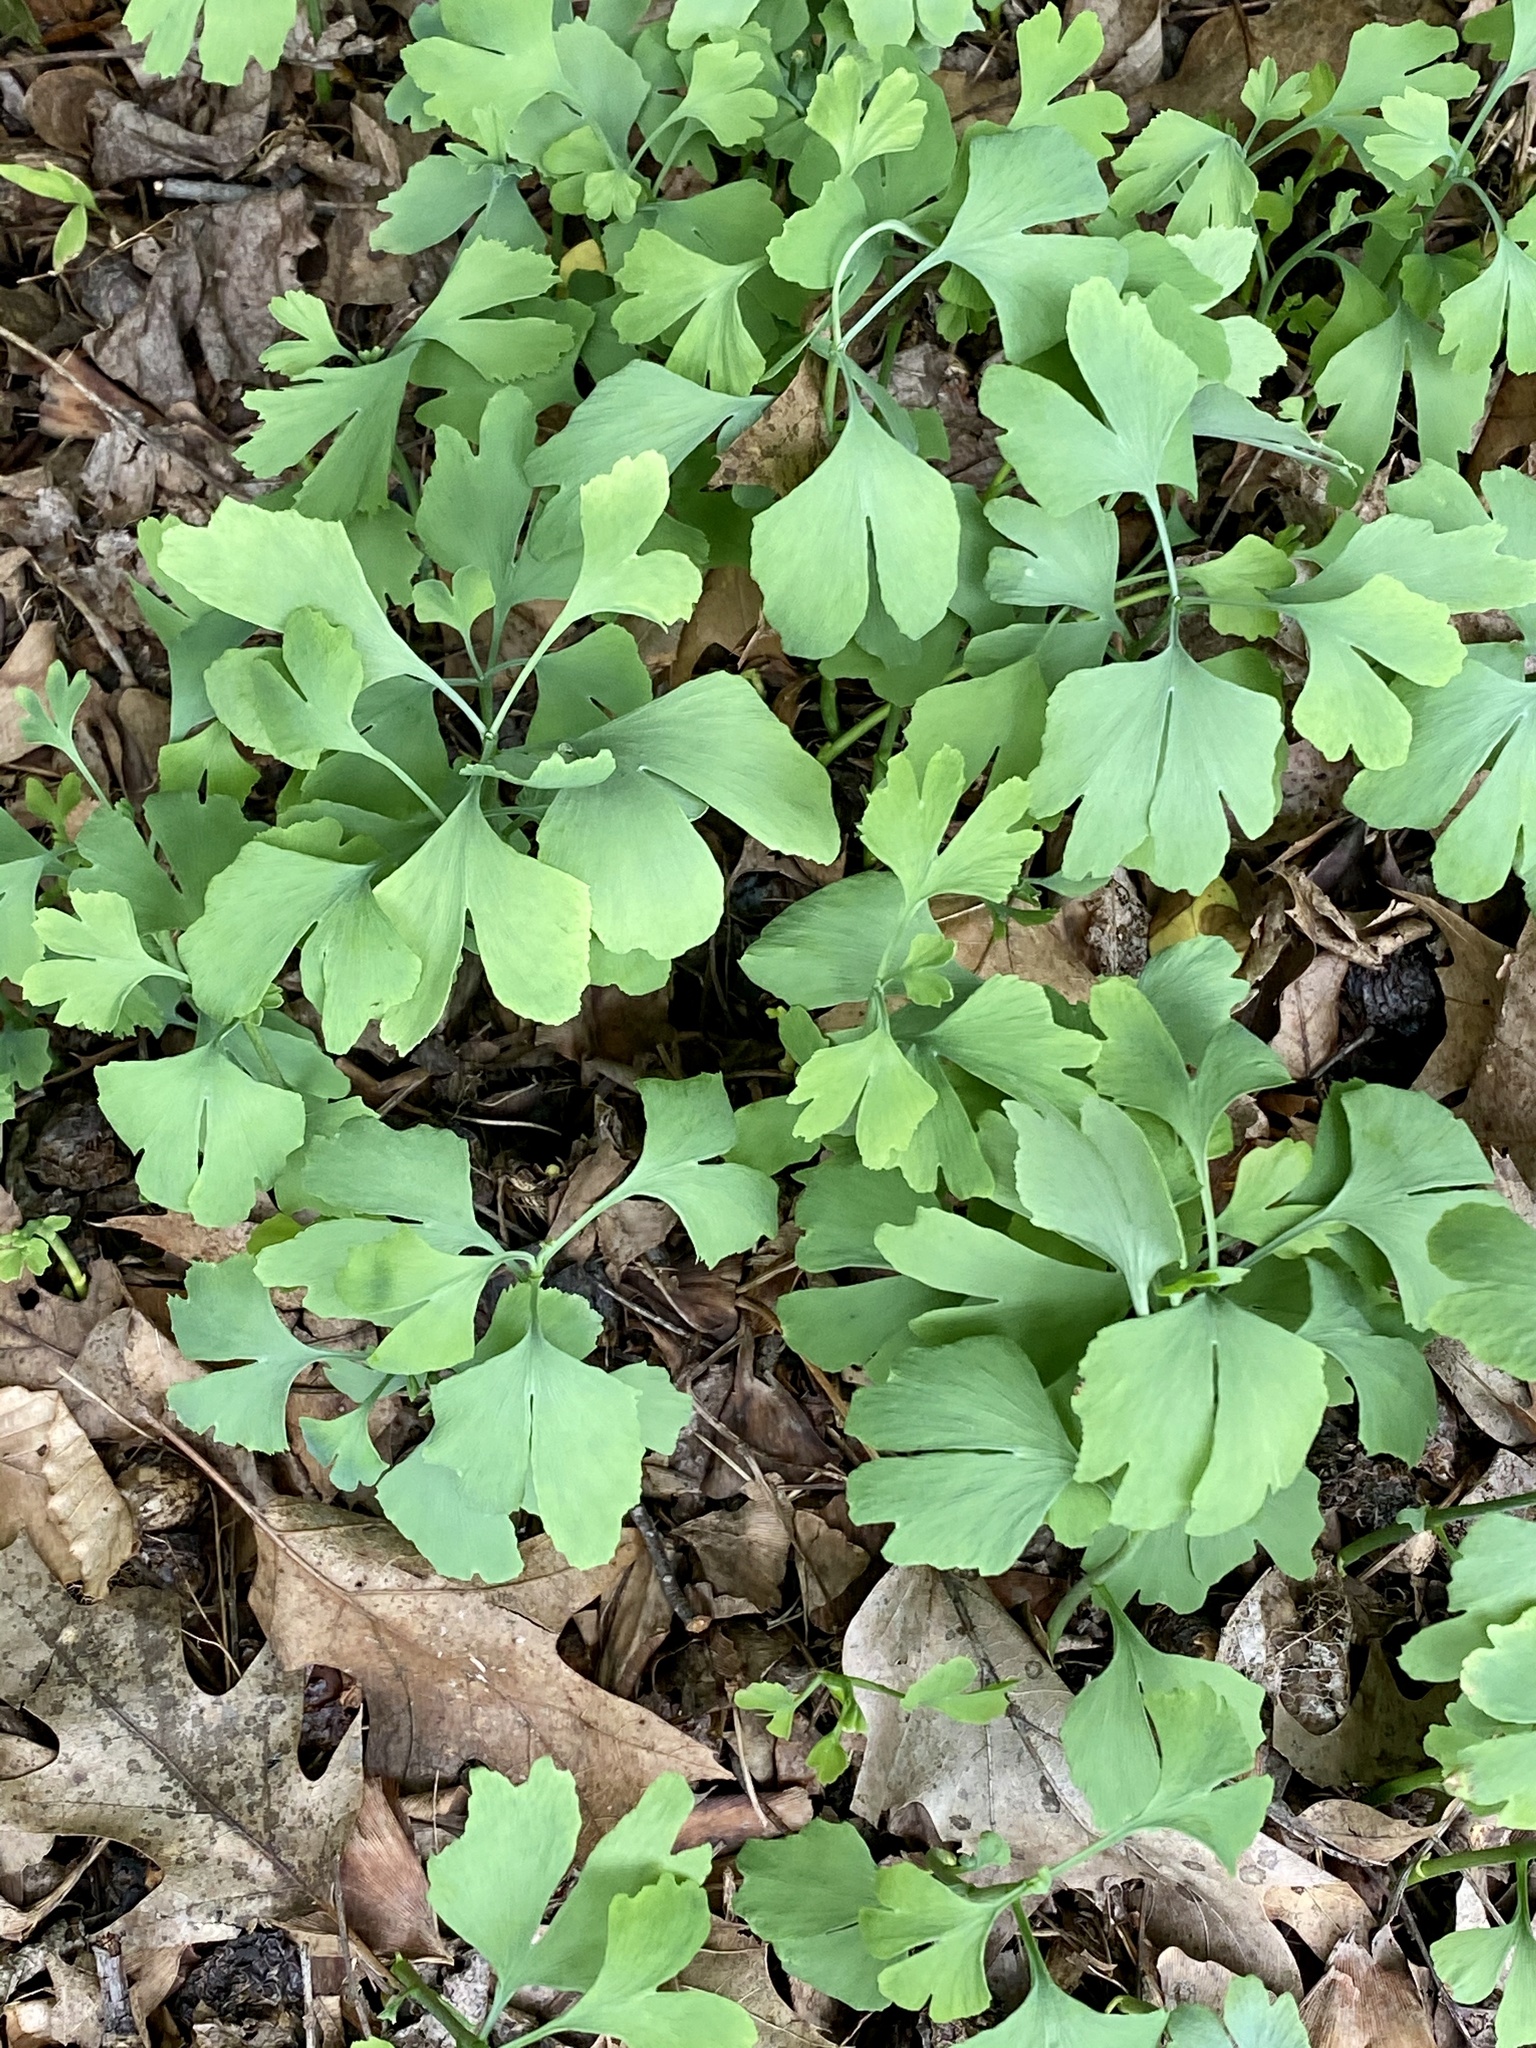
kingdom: Plantae
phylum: Tracheophyta
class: Ginkgoopsida
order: Ginkgoales
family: Ginkgoaceae
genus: Ginkgo
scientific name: Ginkgo biloba
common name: Ginkgo
